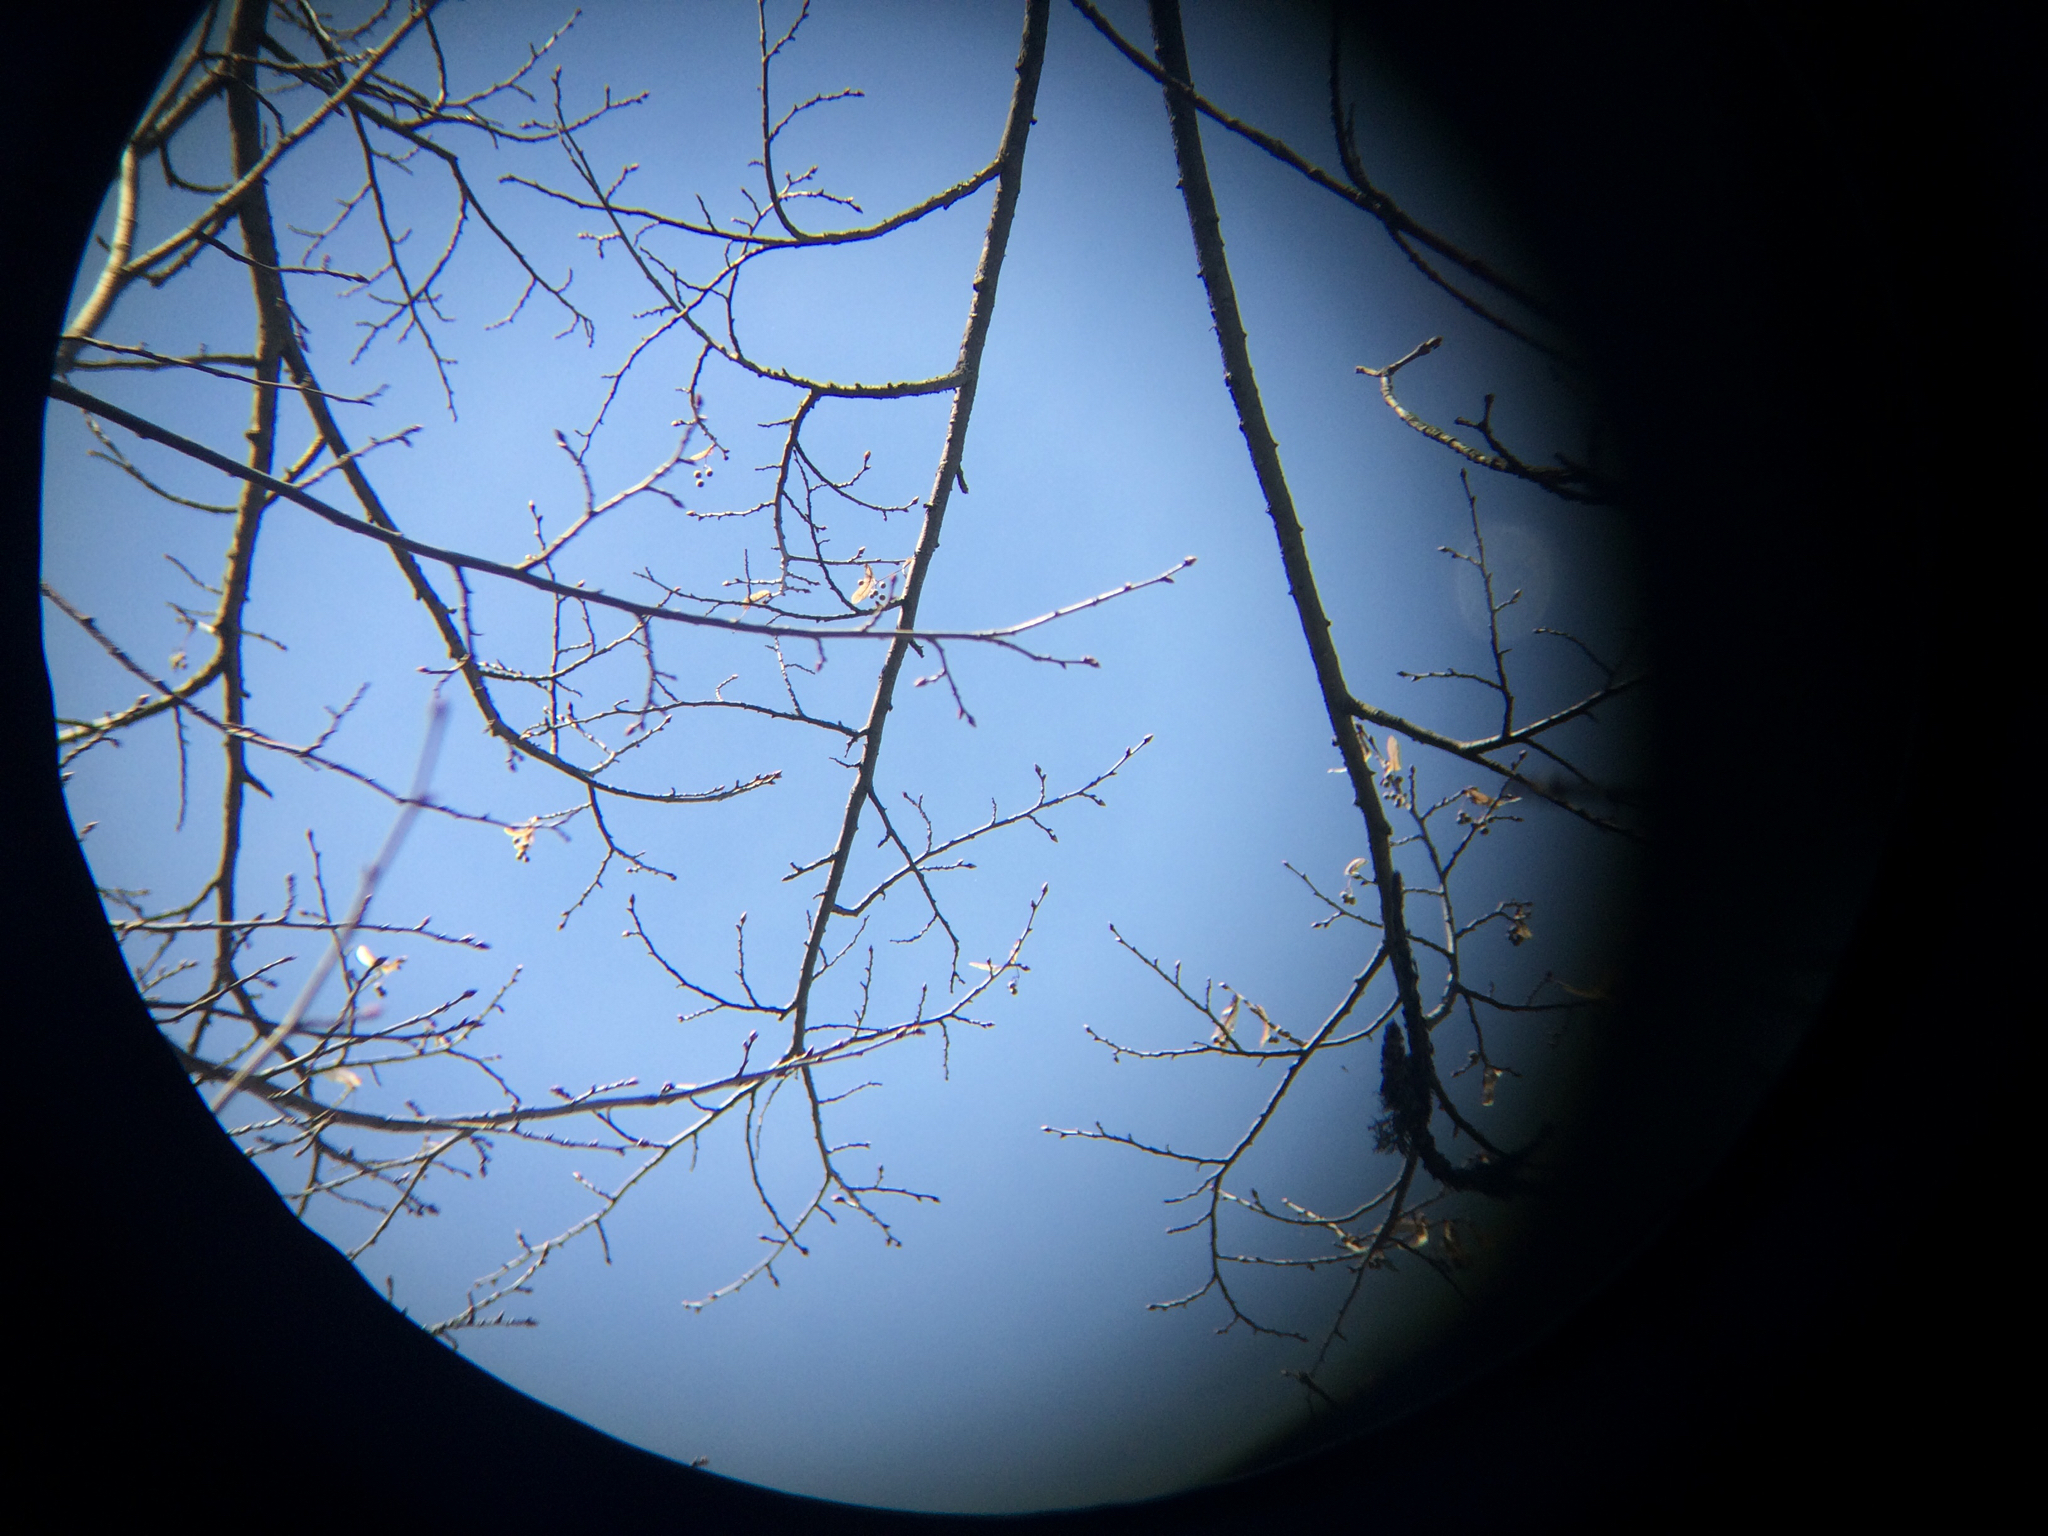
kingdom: Plantae
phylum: Tracheophyta
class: Magnoliopsida
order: Malvales
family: Malvaceae
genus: Tilia
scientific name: Tilia americana
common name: Basswood
